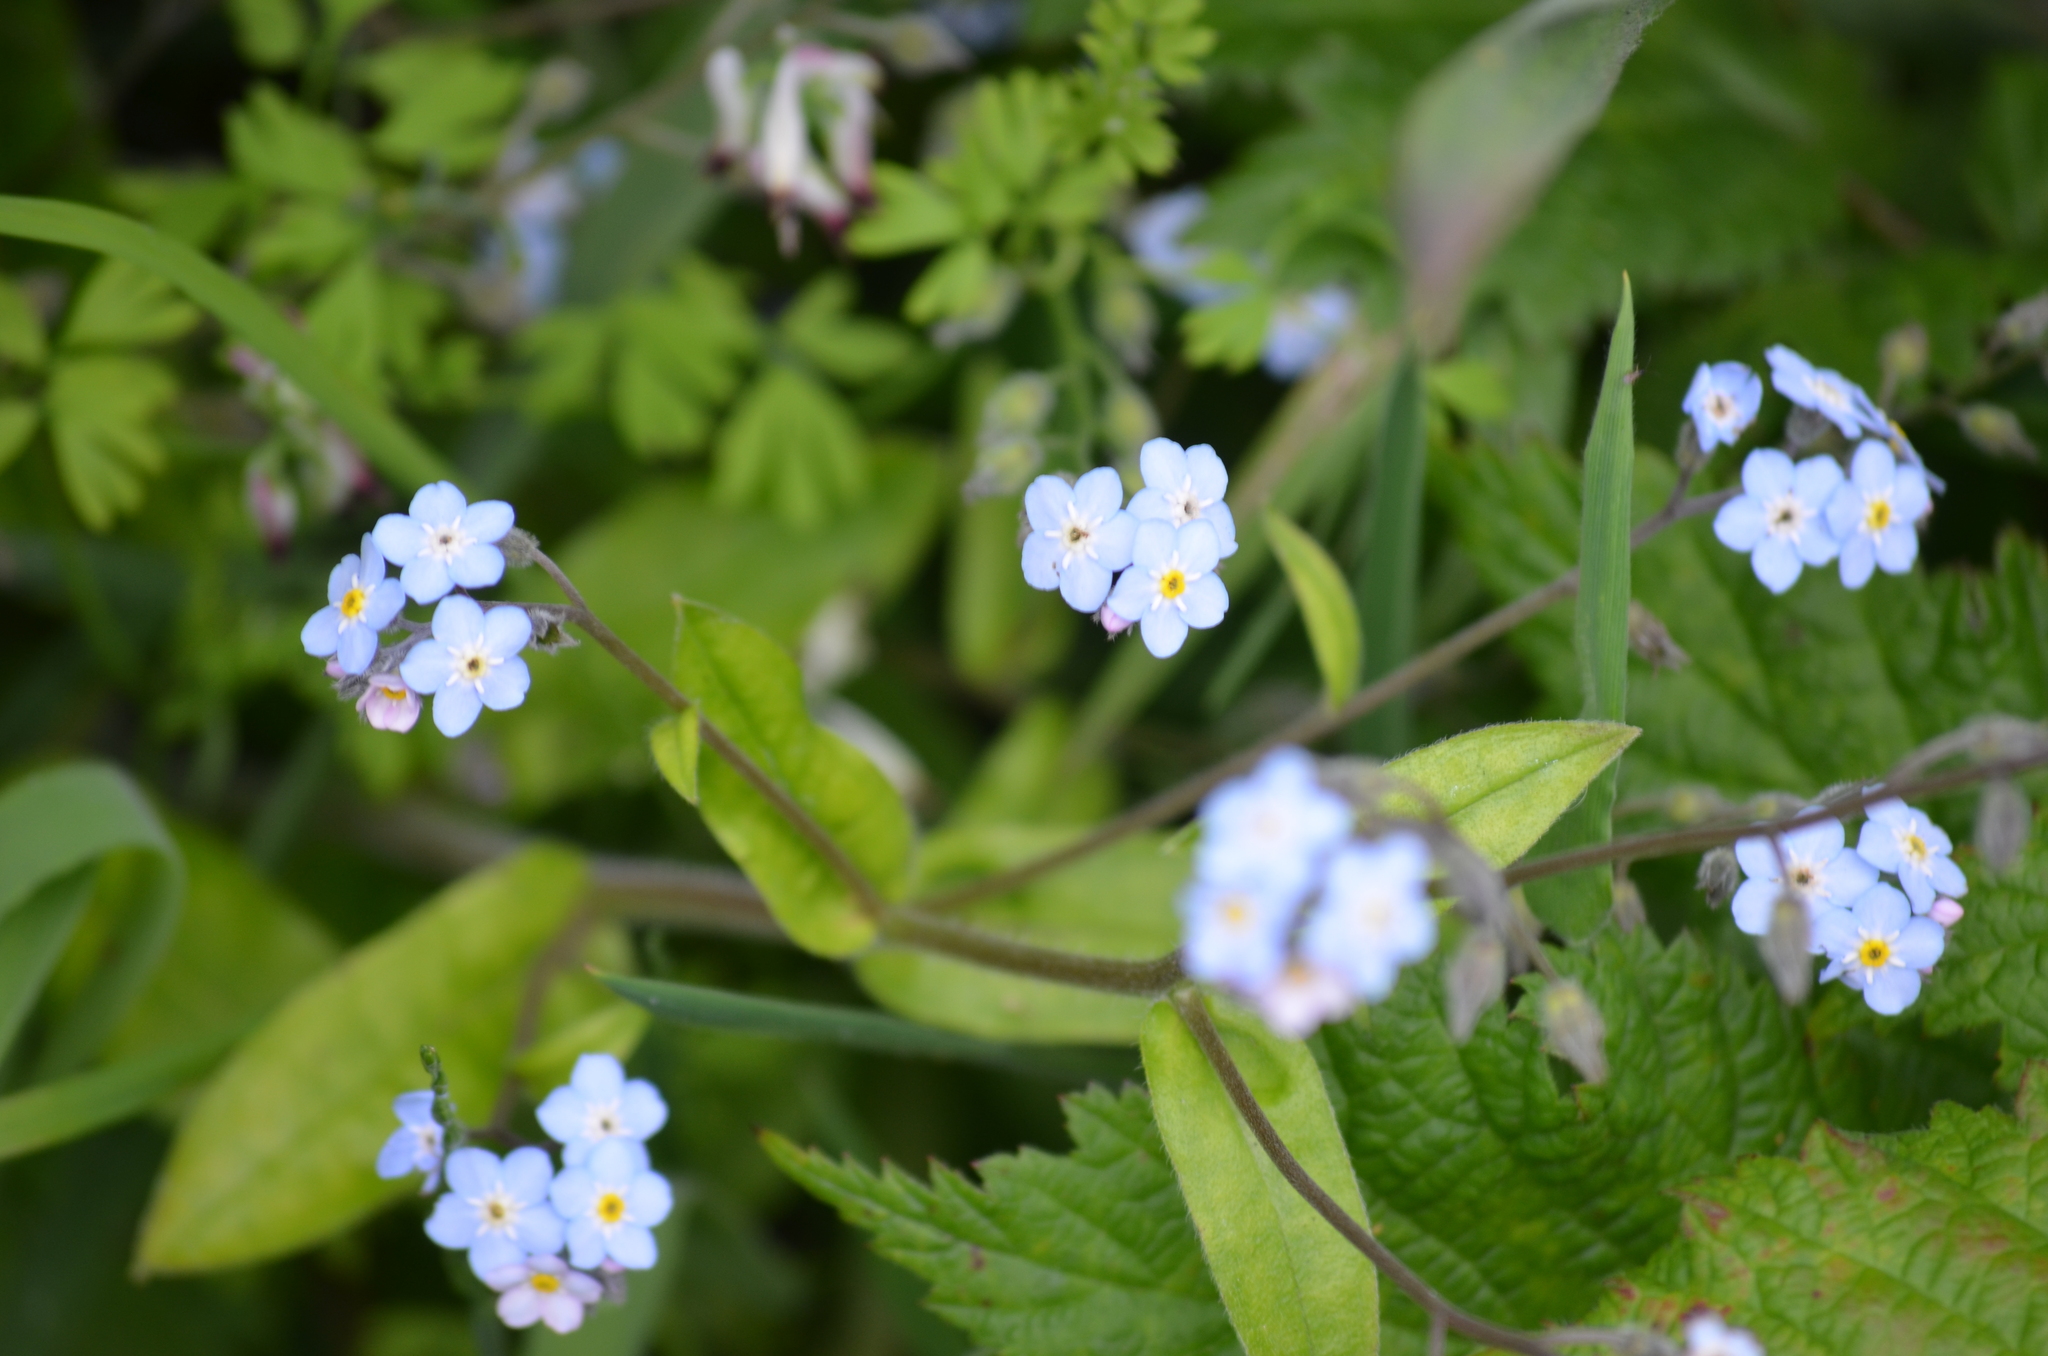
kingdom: Plantae
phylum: Tracheophyta
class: Magnoliopsida
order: Boraginales
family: Boraginaceae
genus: Myosotis
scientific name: Myosotis latifolia
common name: Broadleaf forget-me-not
